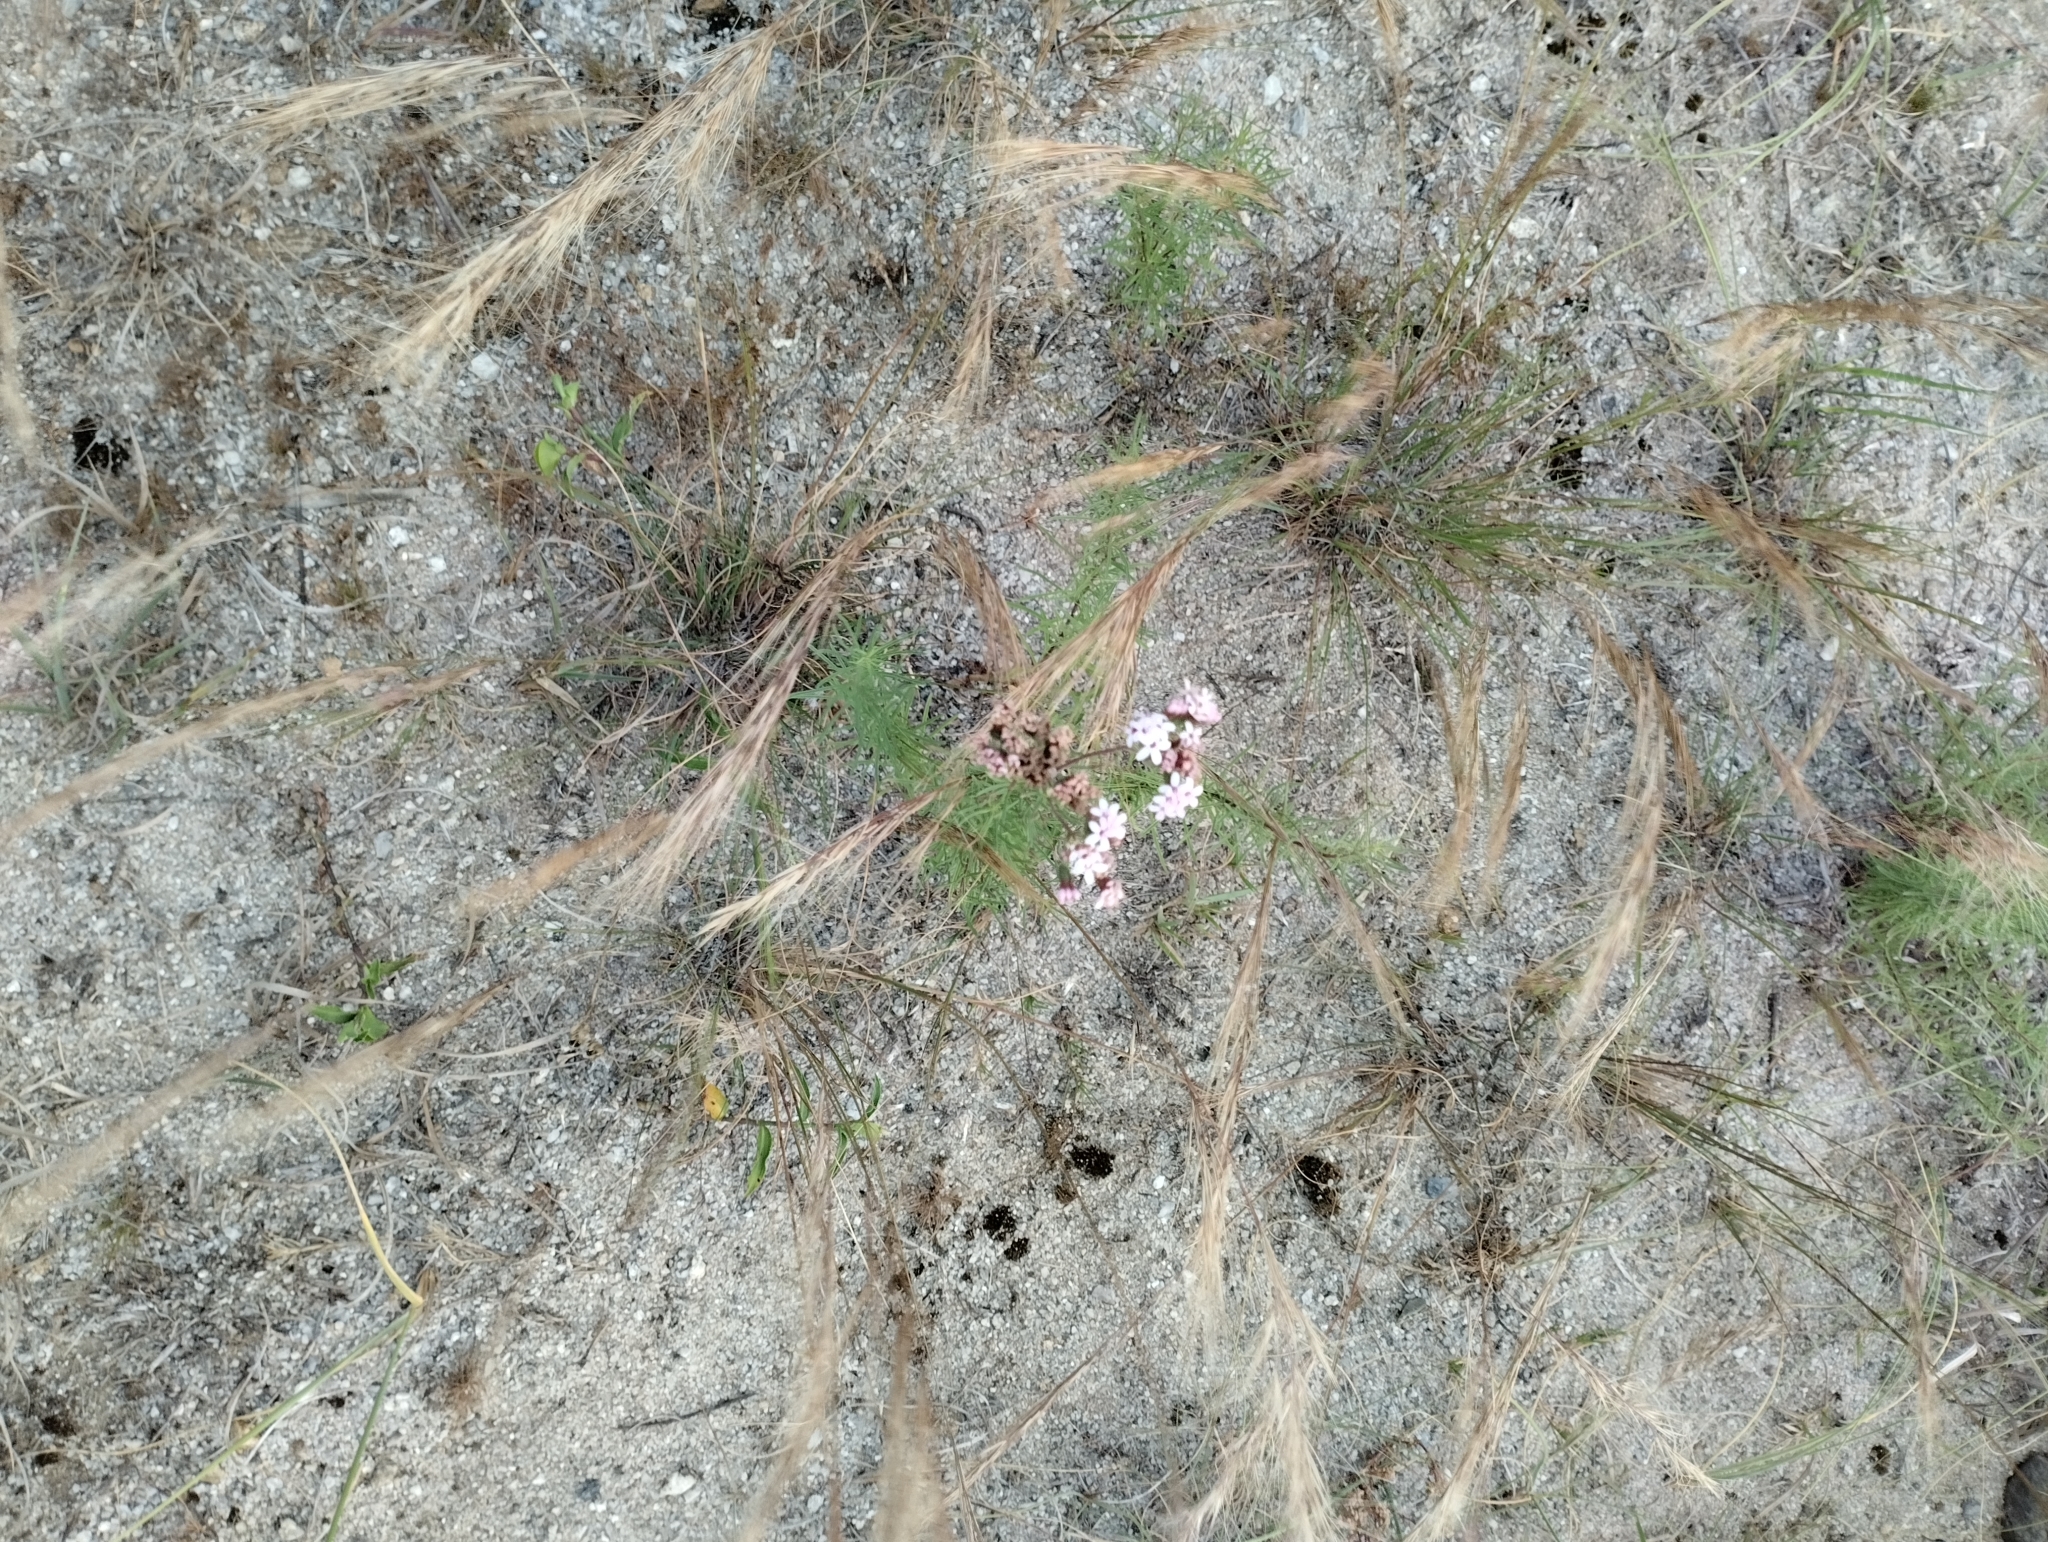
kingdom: Plantae
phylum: Tracheophyta
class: Magnoliopsida
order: Asterales
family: Asteraceae
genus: Stevia
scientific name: Stevia satureifolia
